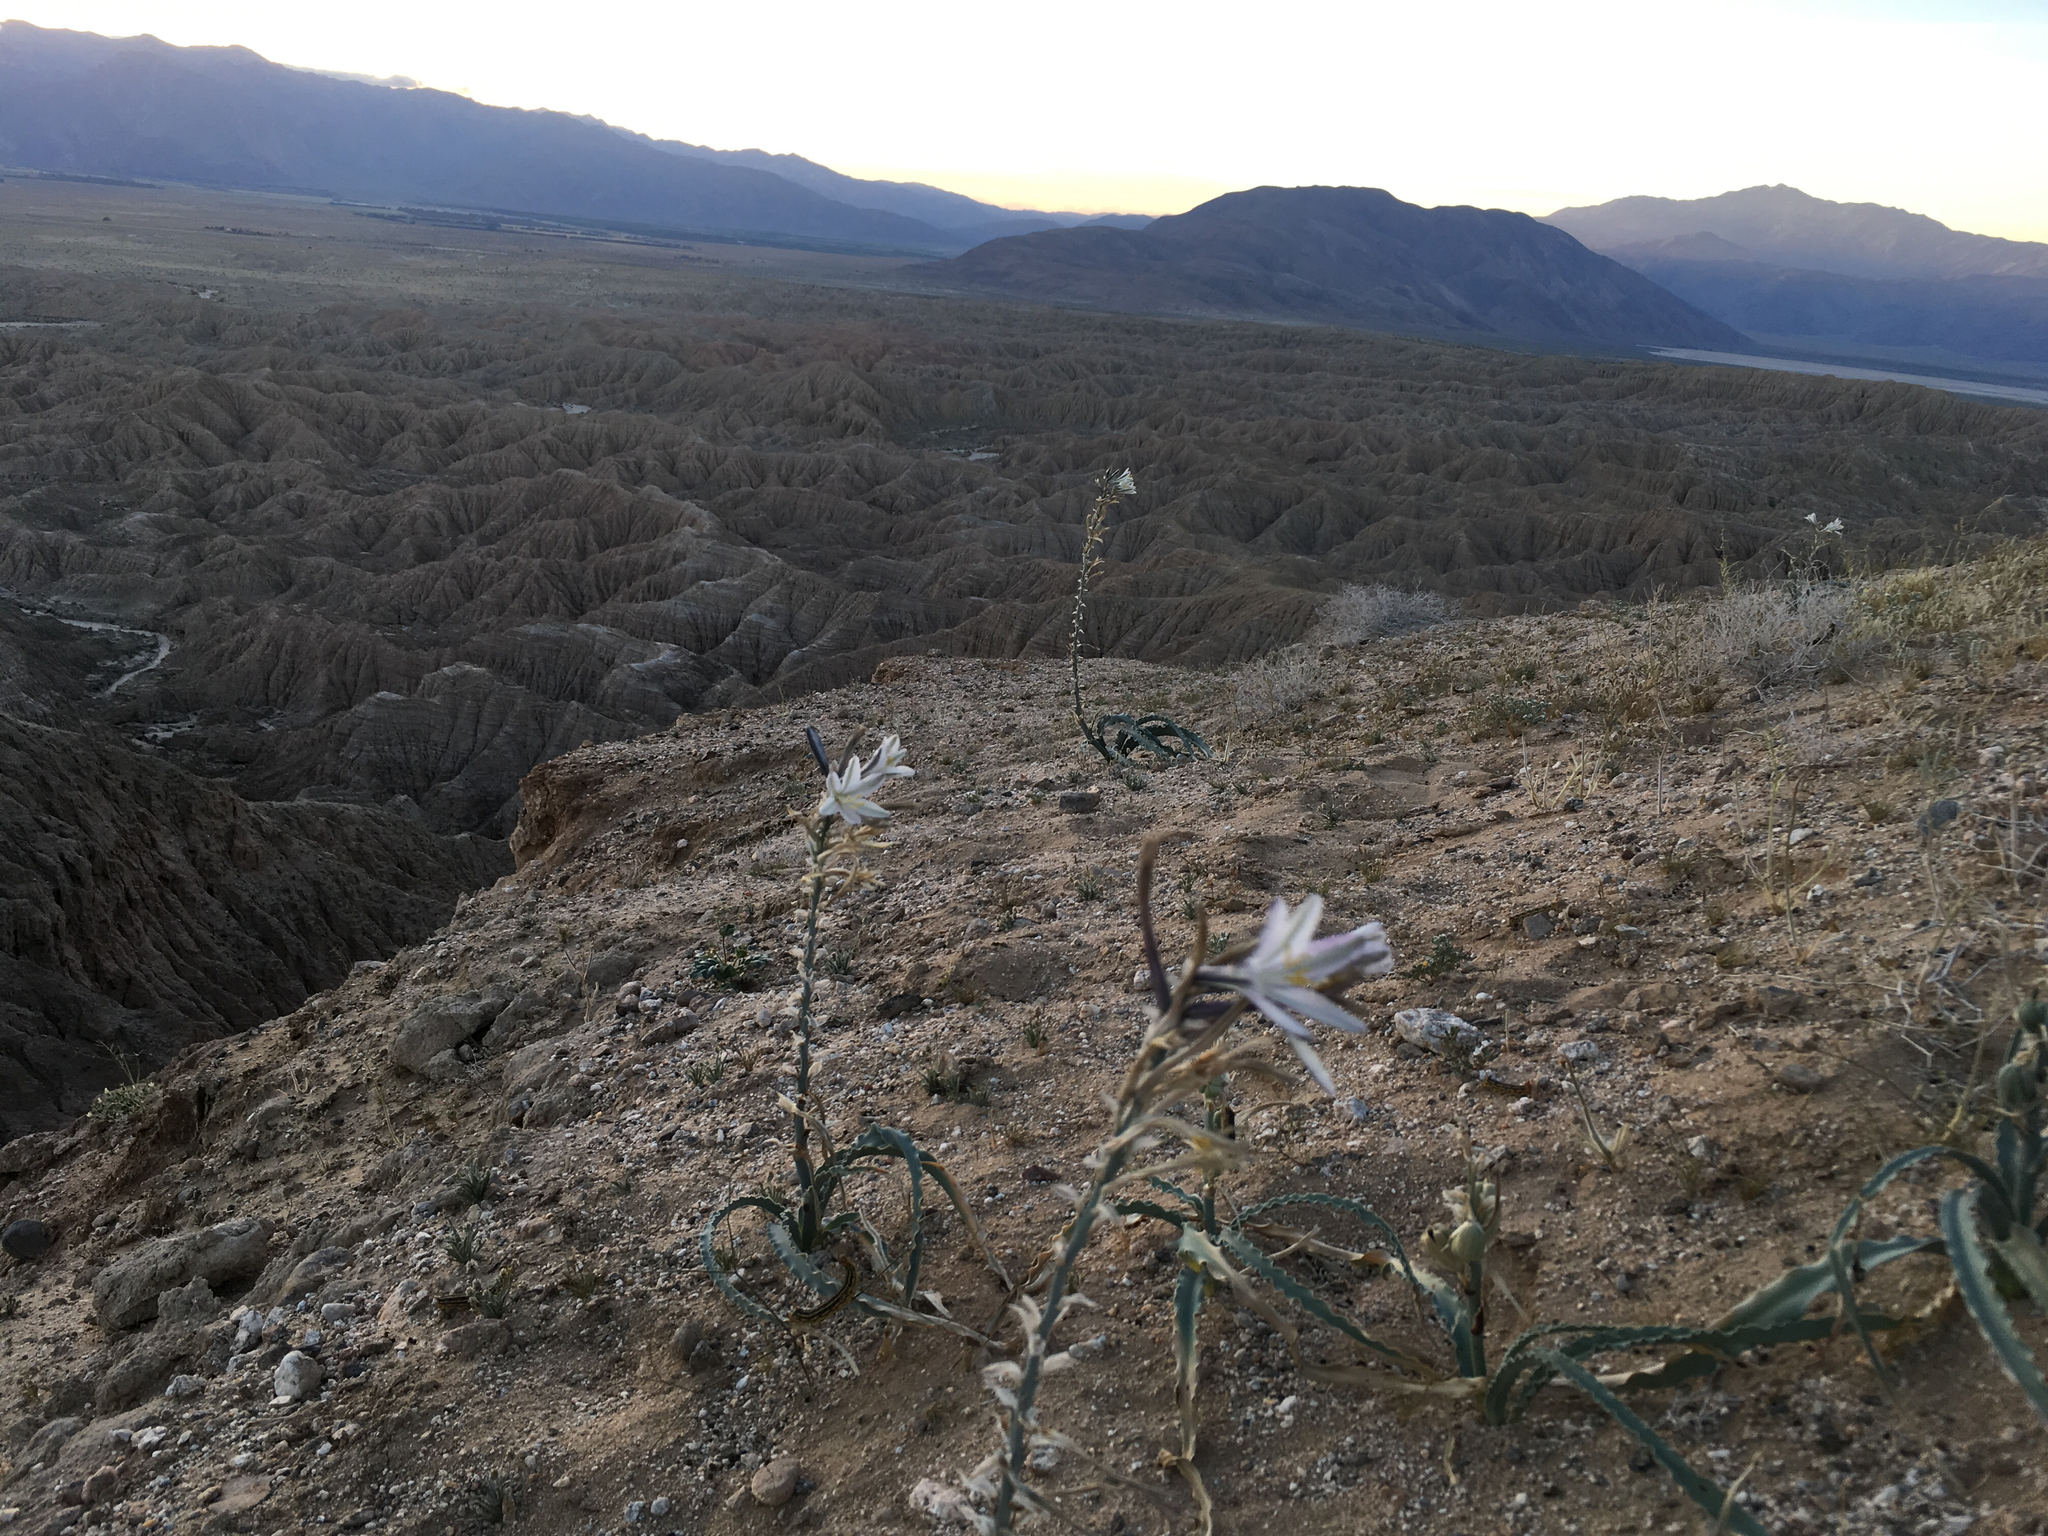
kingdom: Plantae
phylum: Tracheophyta
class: Liliopsida
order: Asparagales
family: Asparagaceae
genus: Hesperocallis
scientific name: Hesperocallis undulata
